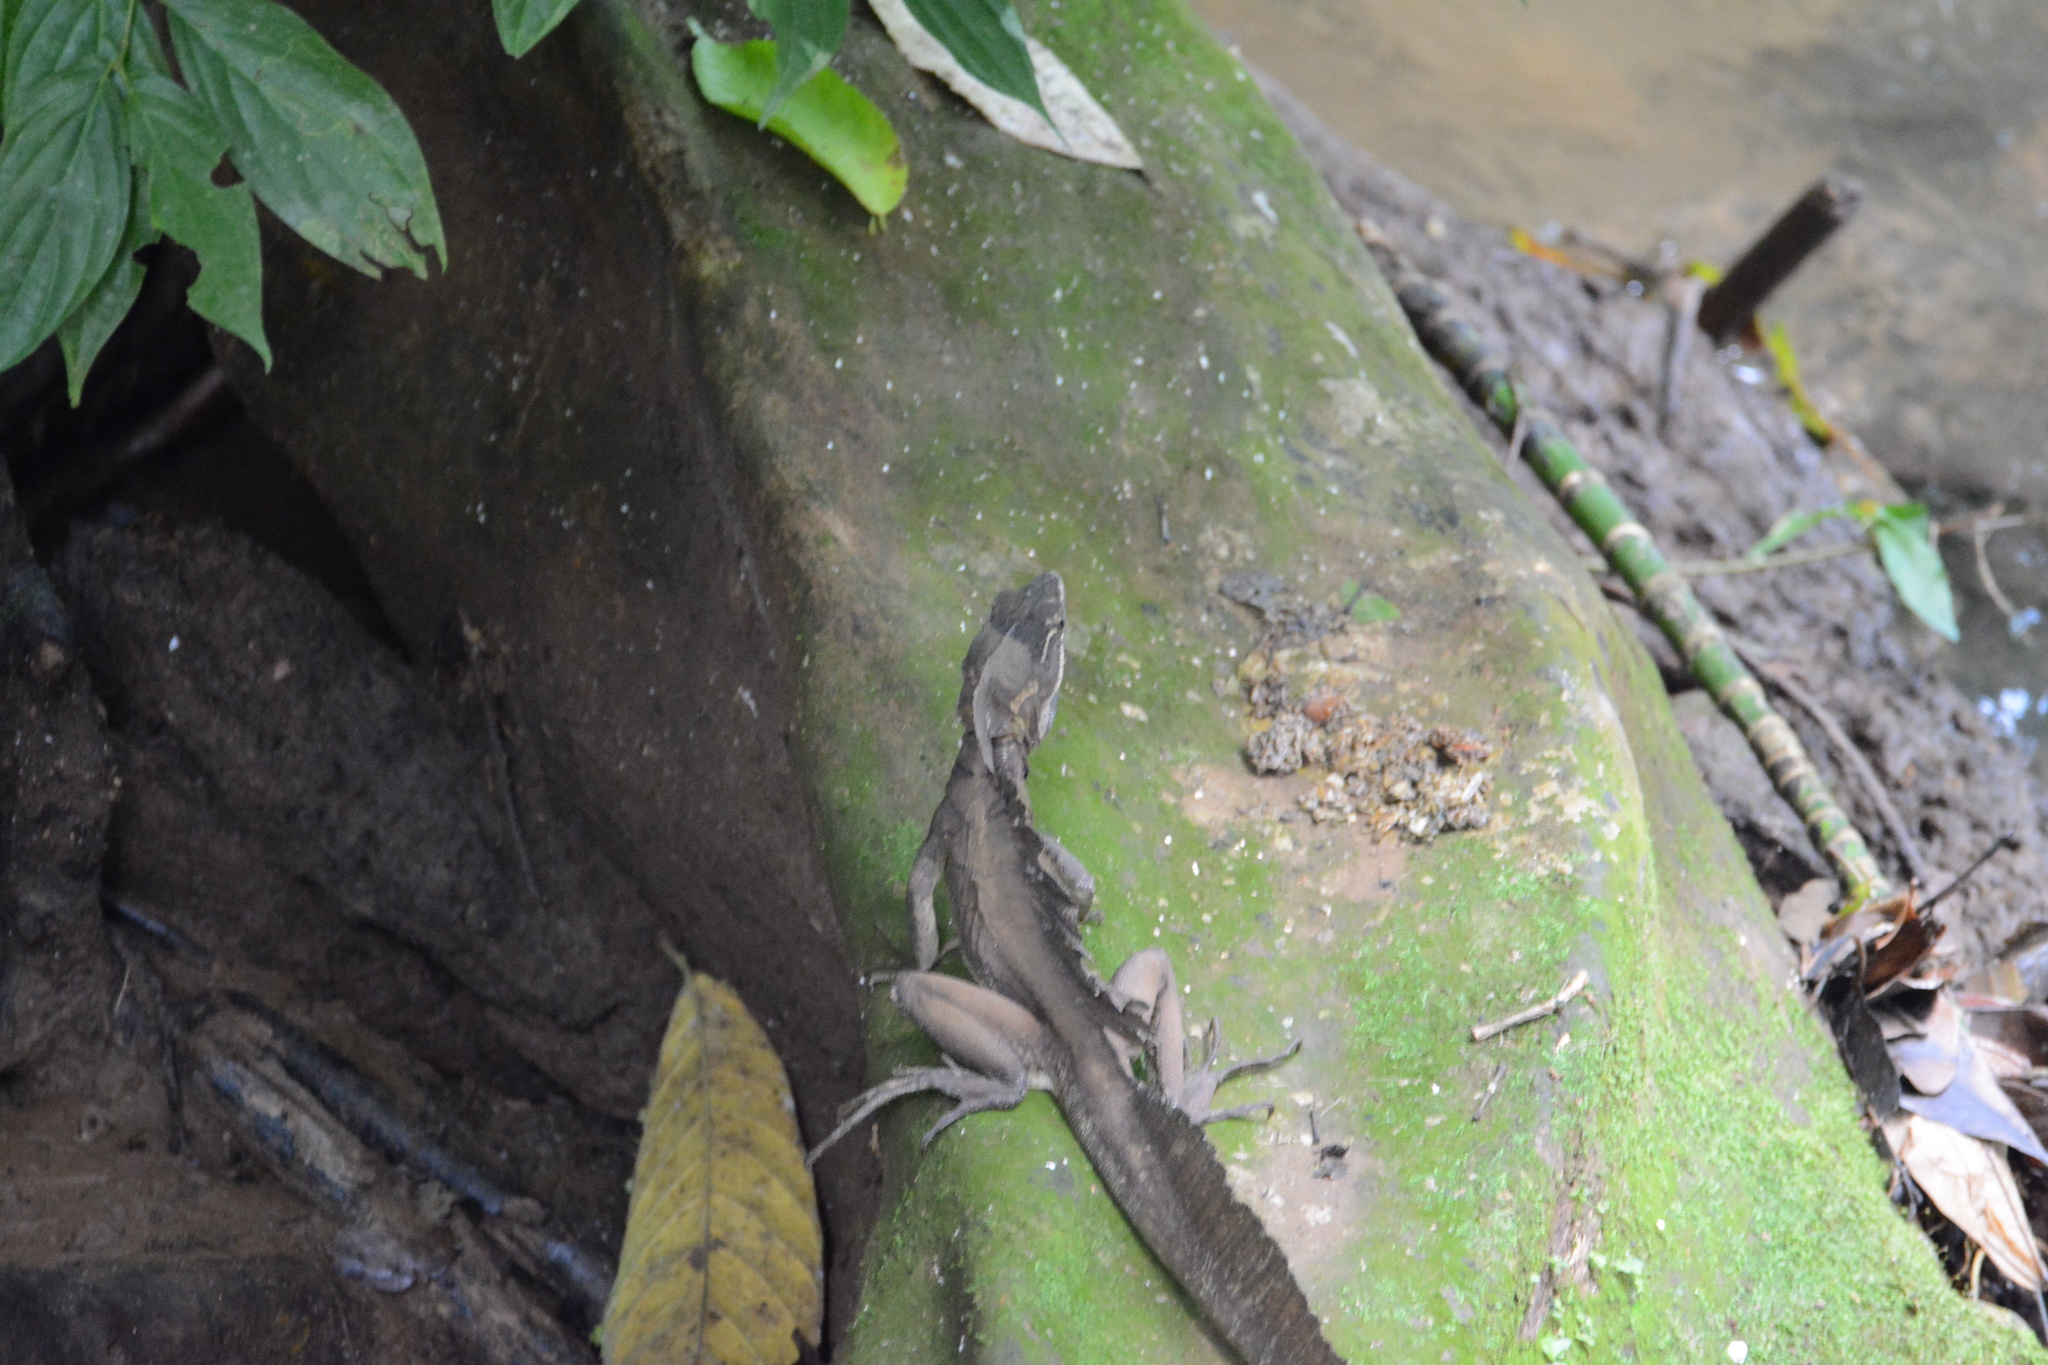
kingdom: Animalia
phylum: Chordata
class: Squamata
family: Corytophanidae
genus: Basiliscus
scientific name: Basiliscus basiliscus
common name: Common basilisk
